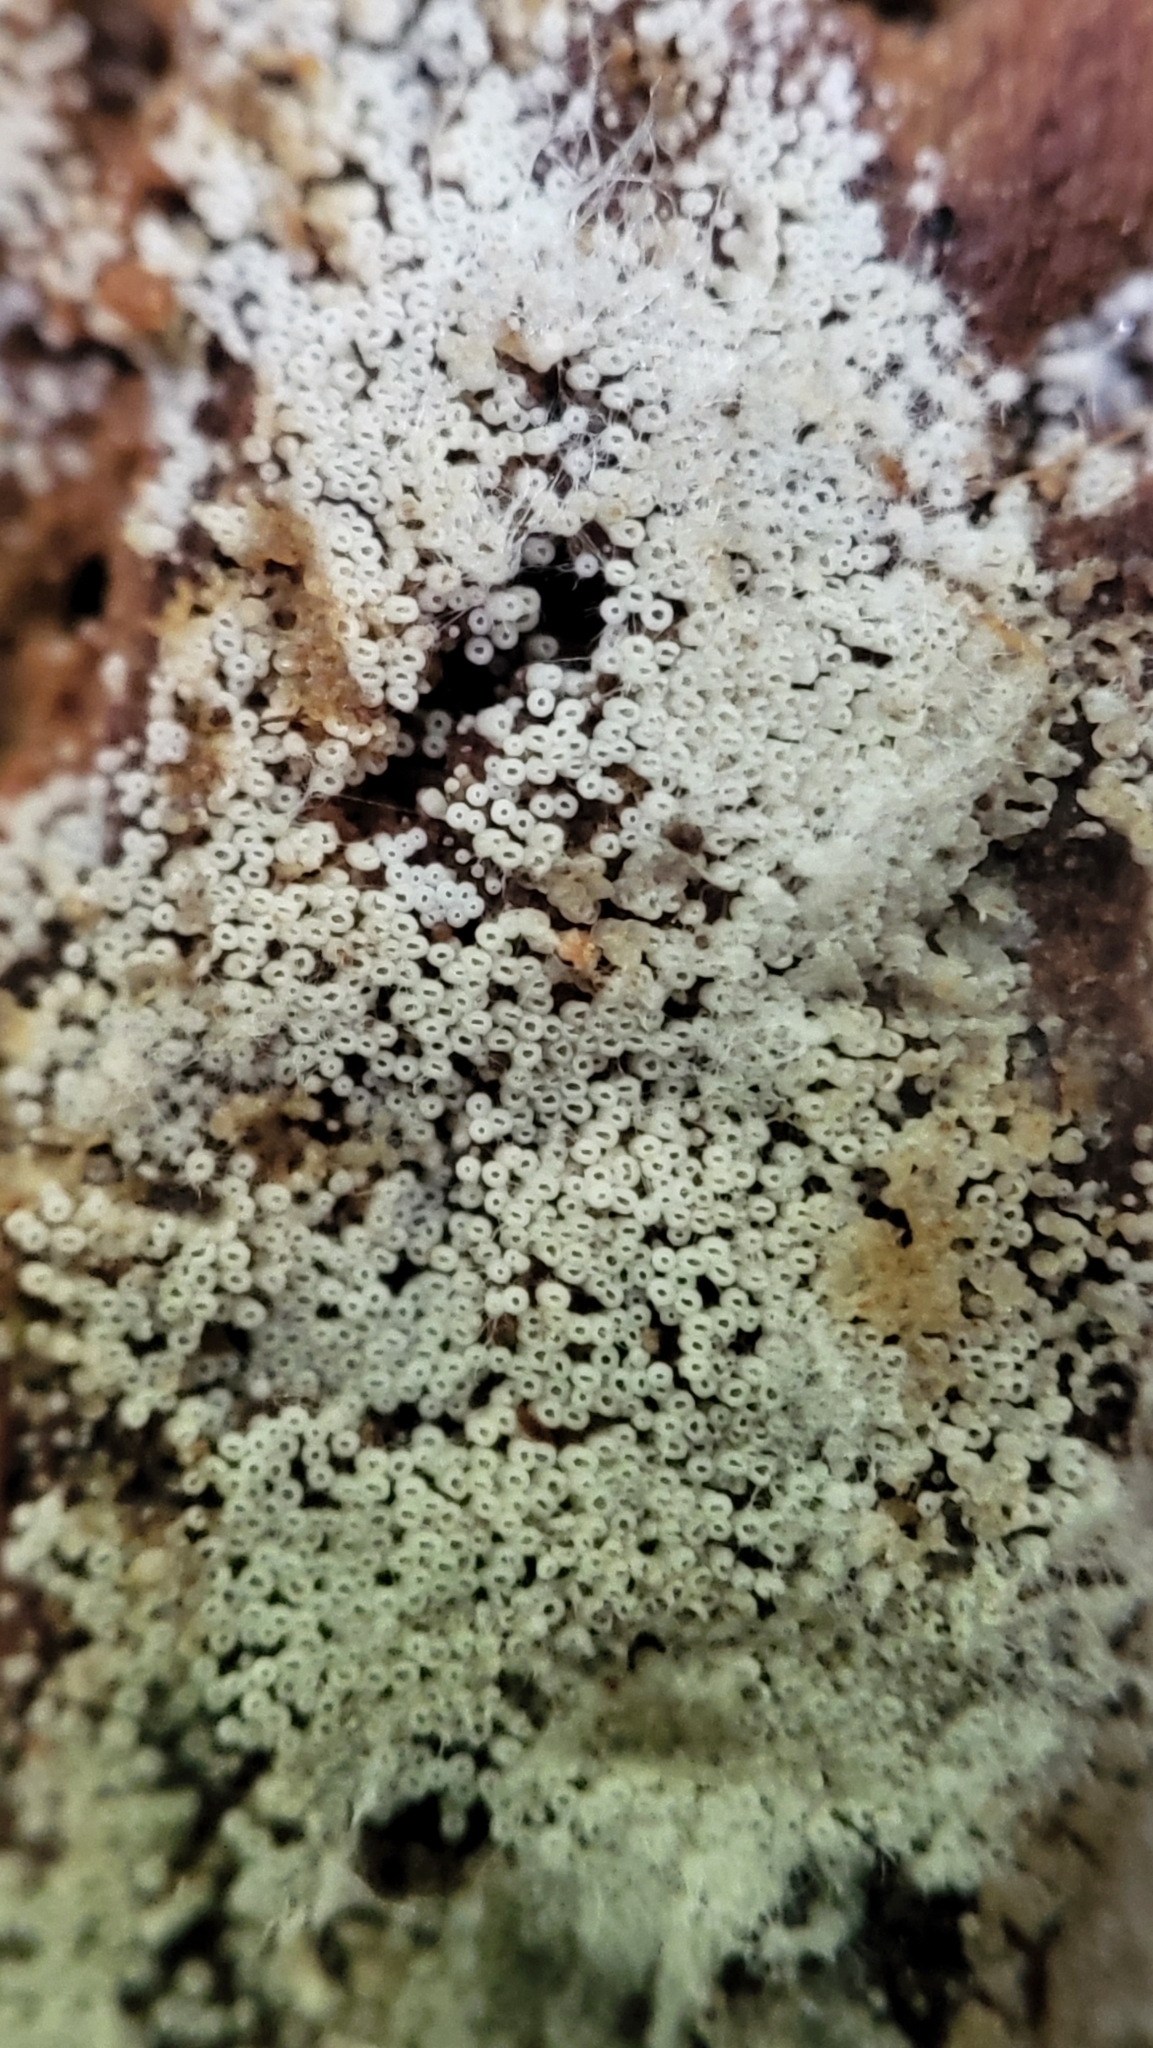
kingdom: Fungi
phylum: Basidiomycota
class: Agaricomycetes
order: Agaricales
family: Marasmiaceae
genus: Henningsomyces
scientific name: Henningsomyces candidus
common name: White tubelet
